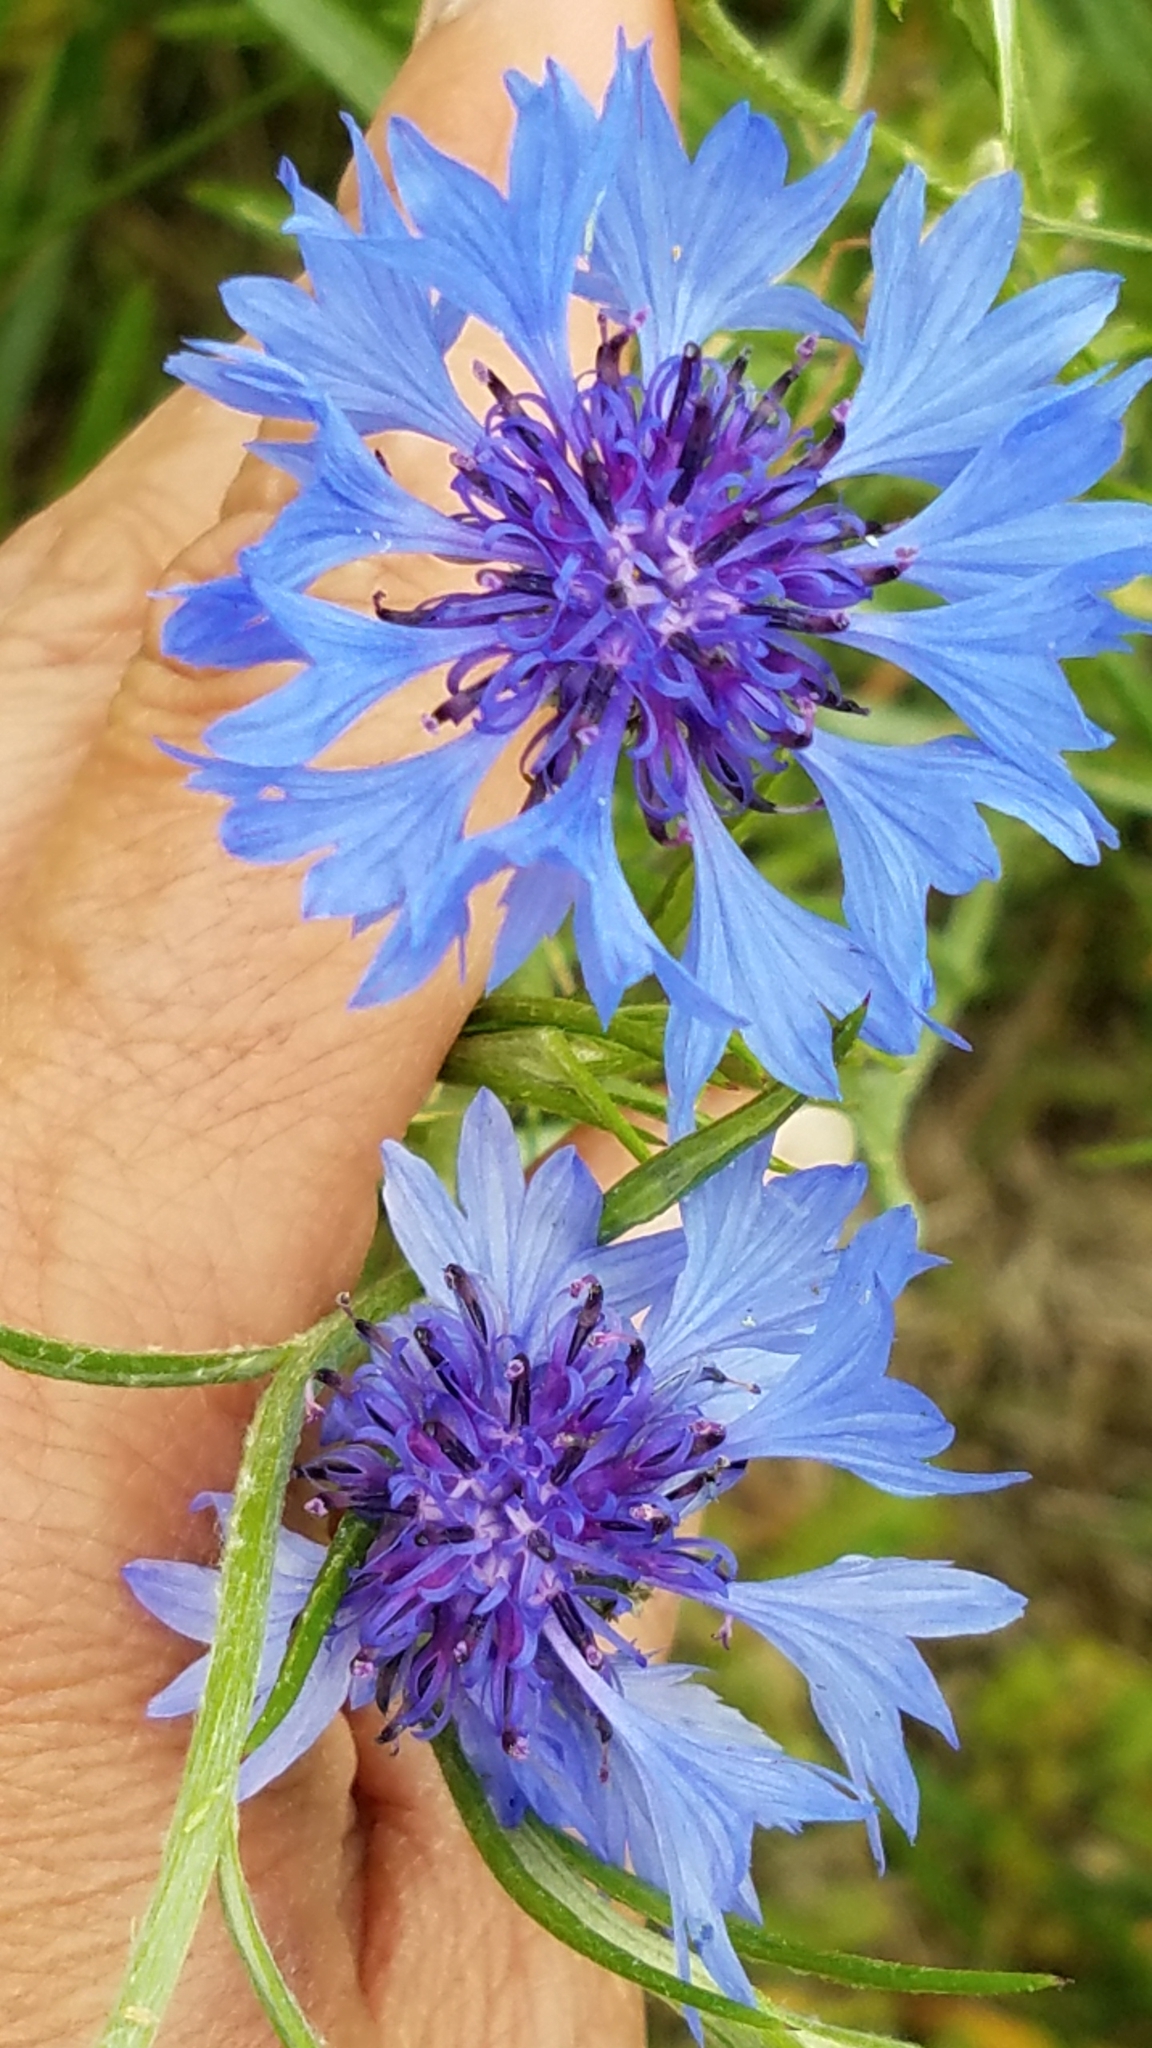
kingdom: Plantae
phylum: Tracheophyta
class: Magnoliopsida
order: Asterales
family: Asteraceae
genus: Centaurea
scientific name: Centaurea cyanus
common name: Cornflower
